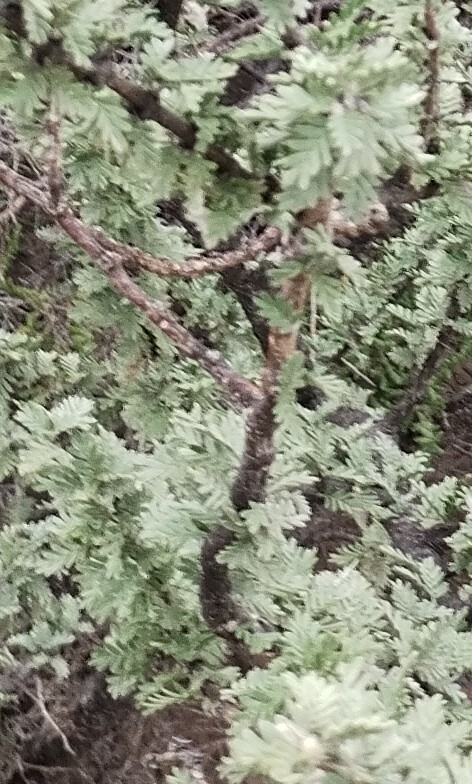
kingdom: Plantae
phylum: Tracheophyta
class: Magnoliopsida
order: Zygophyllales
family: Zygophyllaceae
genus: Plectrocarpa
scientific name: Plectrocarpa tetracantha
